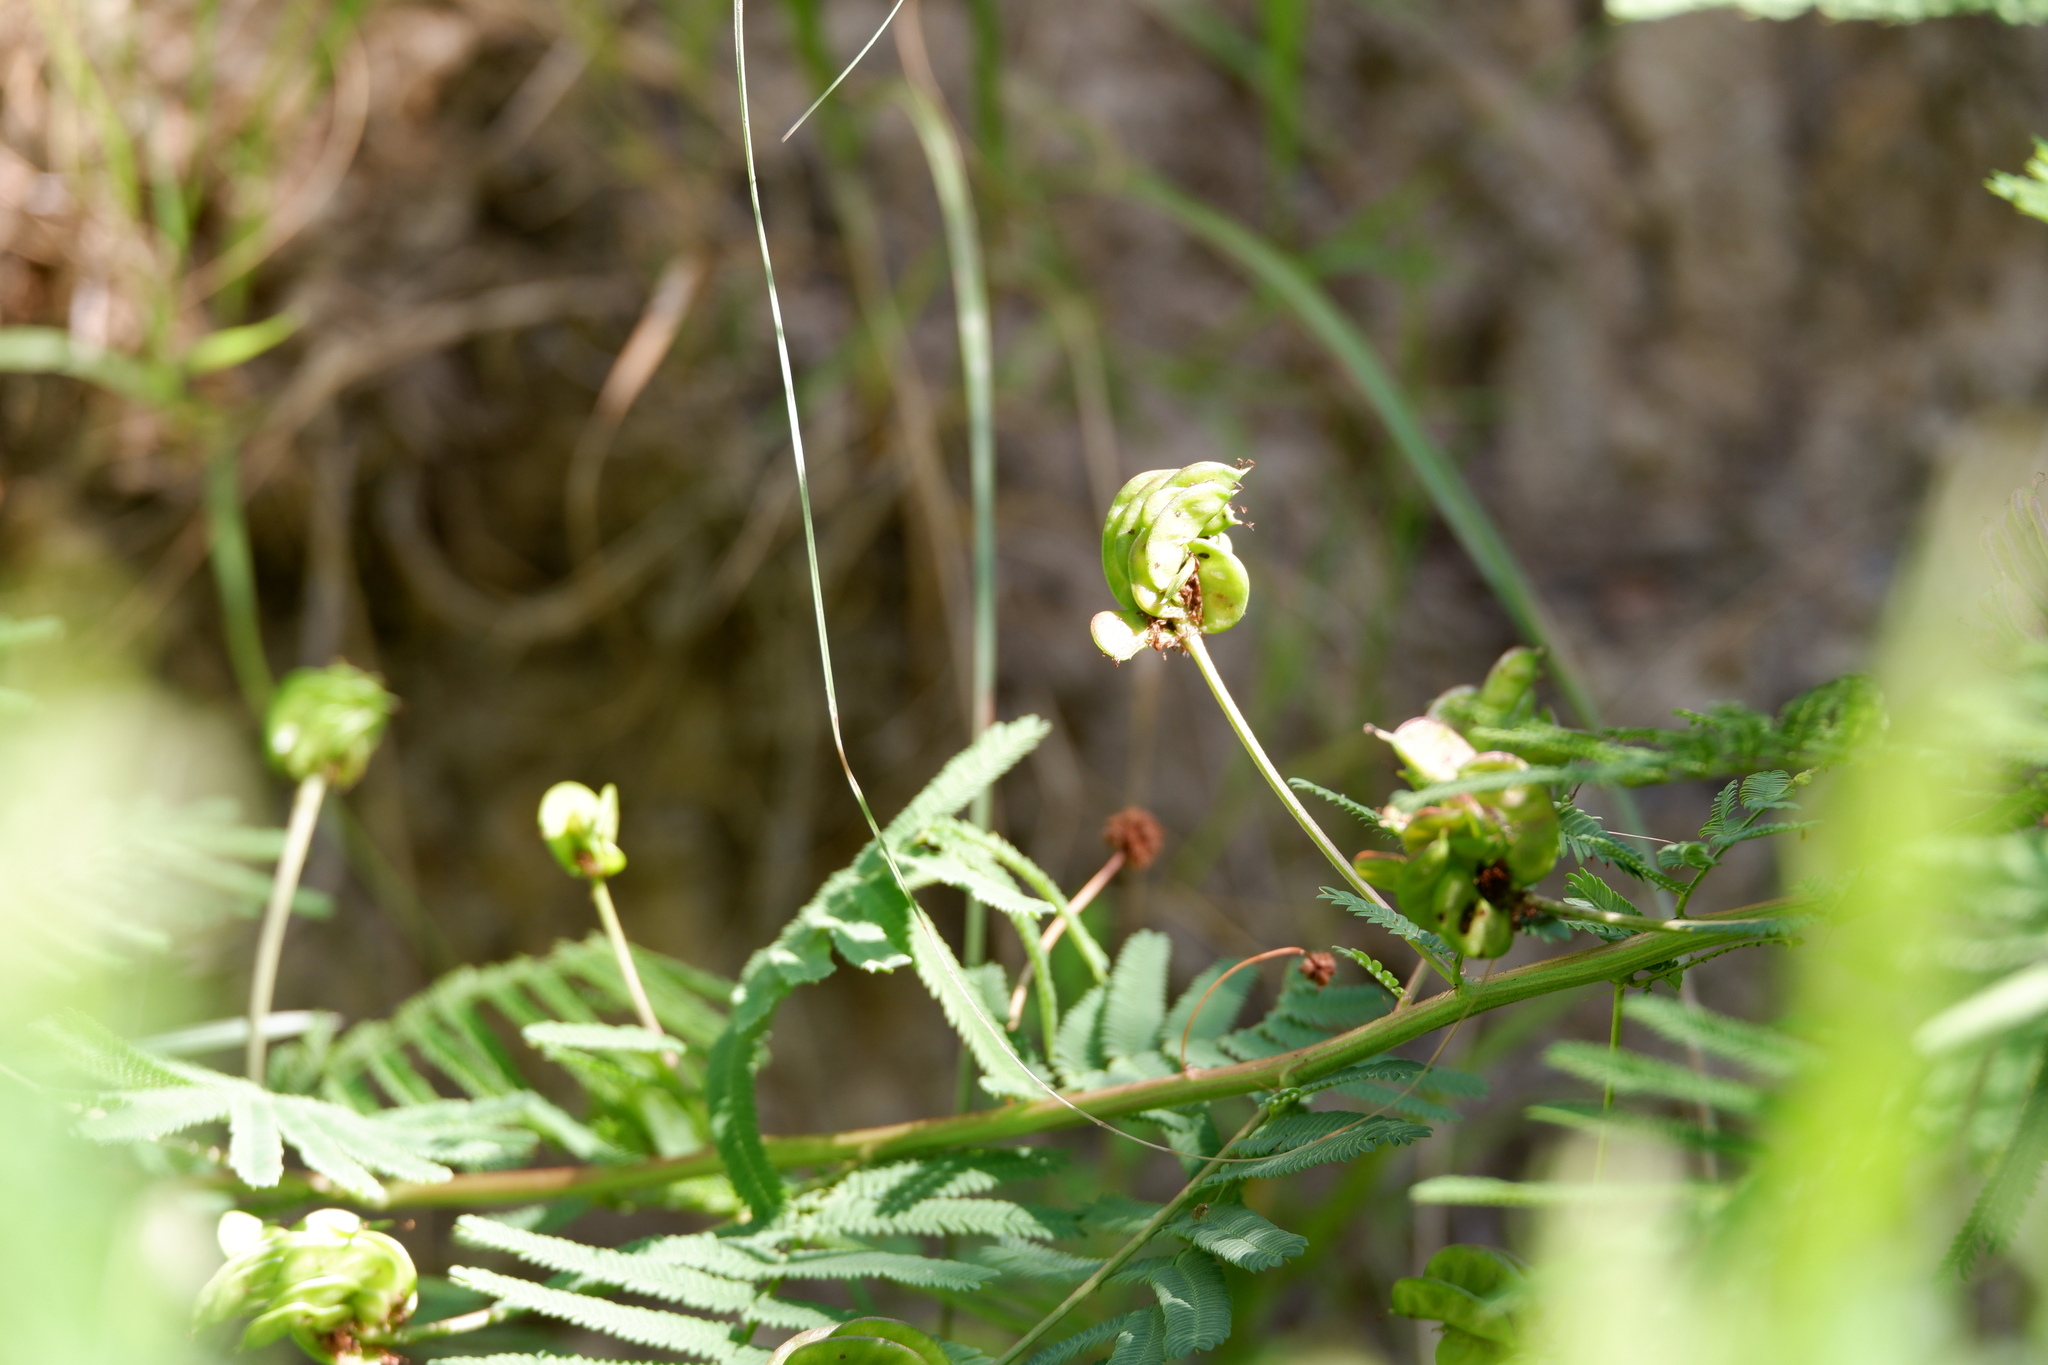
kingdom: Plantae
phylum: Tracheophyta
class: Magnoliopsida
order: Fabales
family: Fabaceae
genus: Desmanthus
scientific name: Desmanthus illinoensis
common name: Illinois bundle-flower
